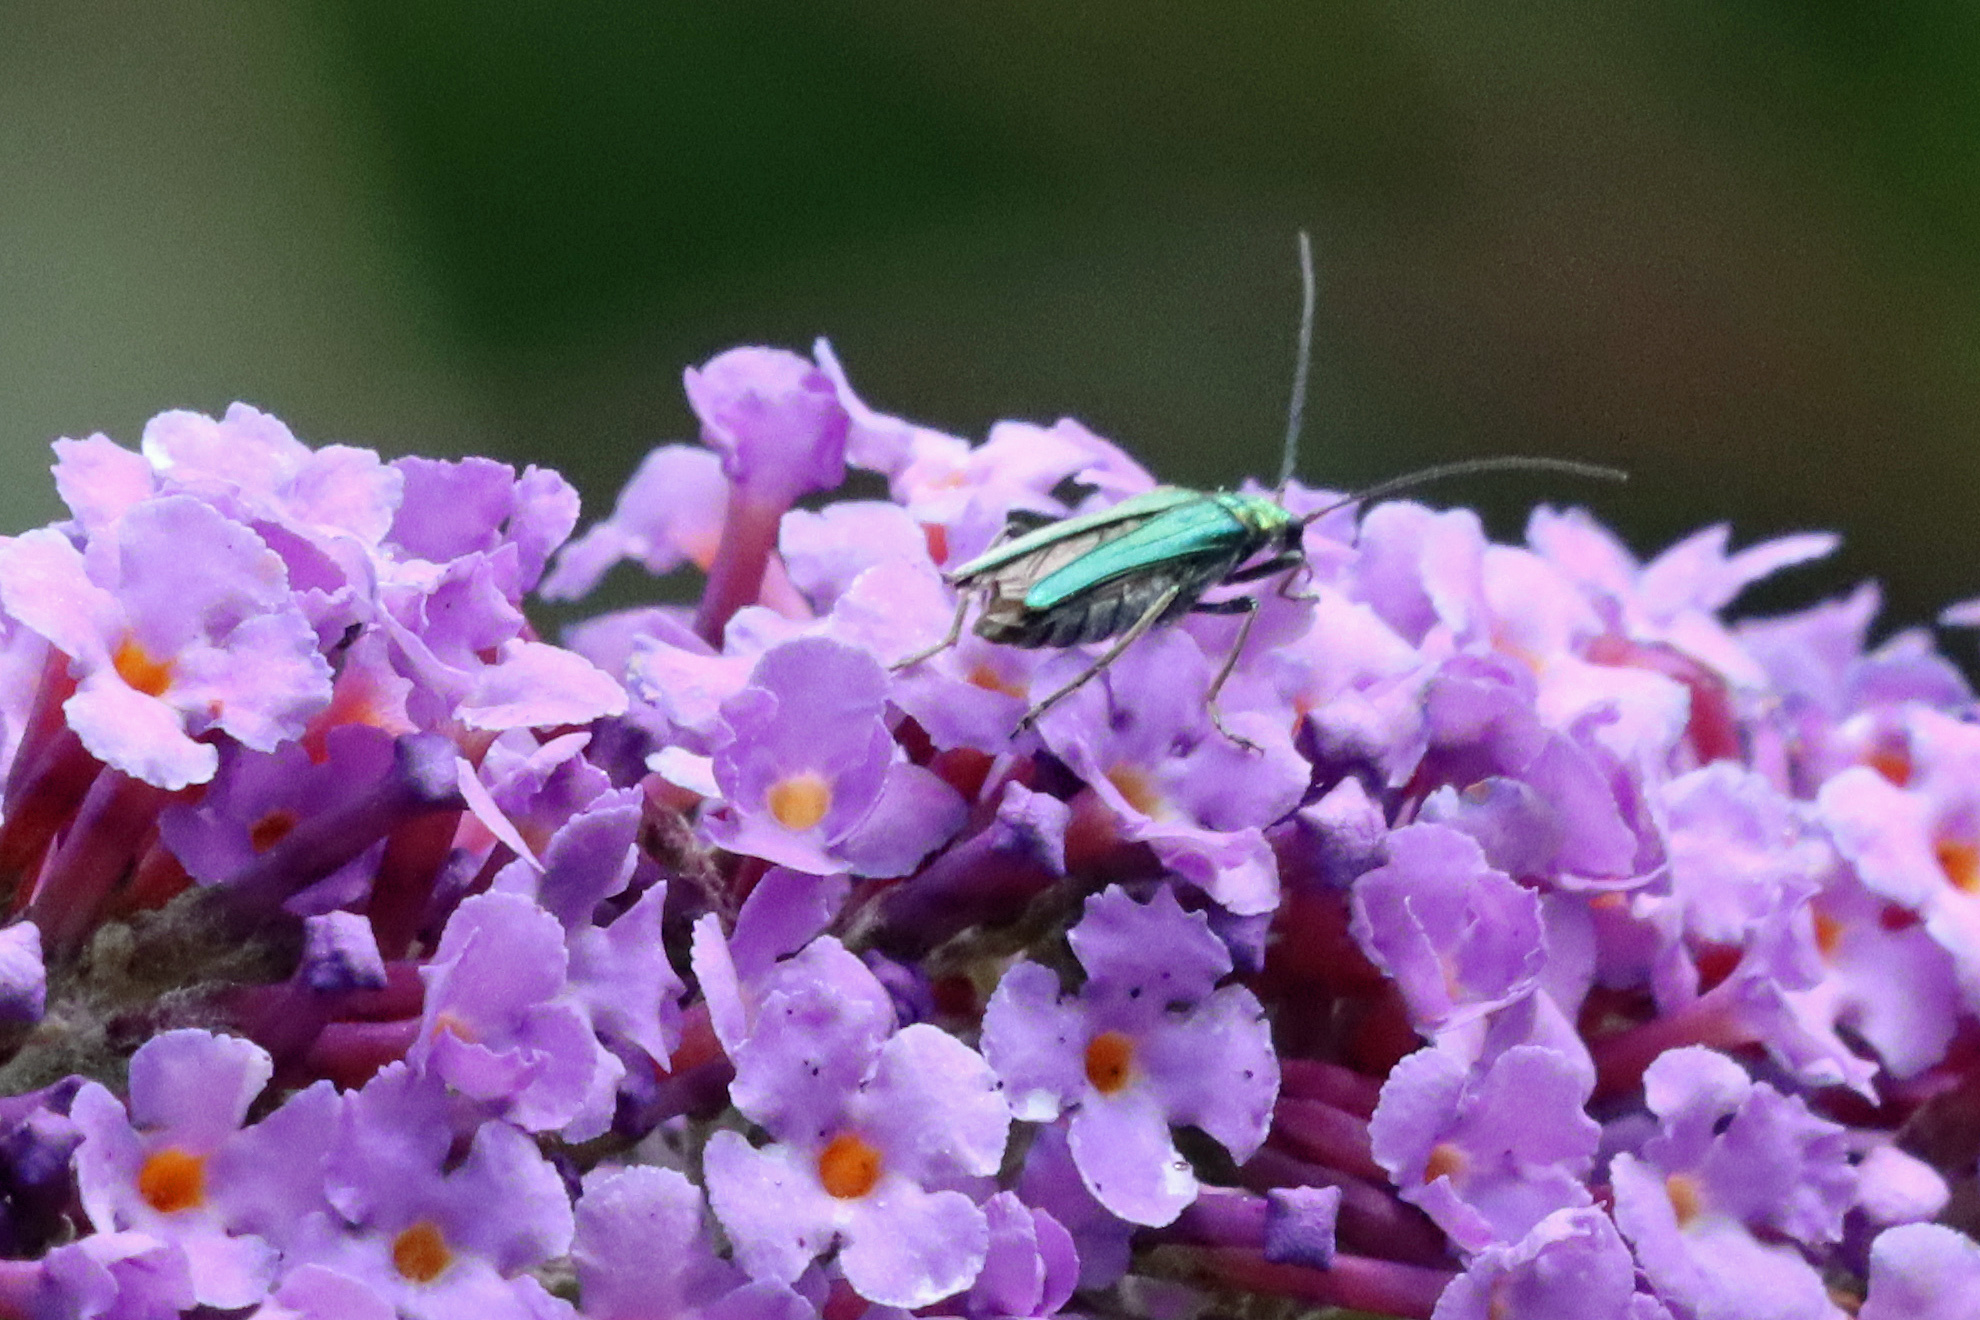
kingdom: Animalia
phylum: Arthropoda
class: Insecta
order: Coleoptera
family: Oedemeridae
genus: Oedemera
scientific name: Oedemera nobilis
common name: Swollen-thighed beetle
